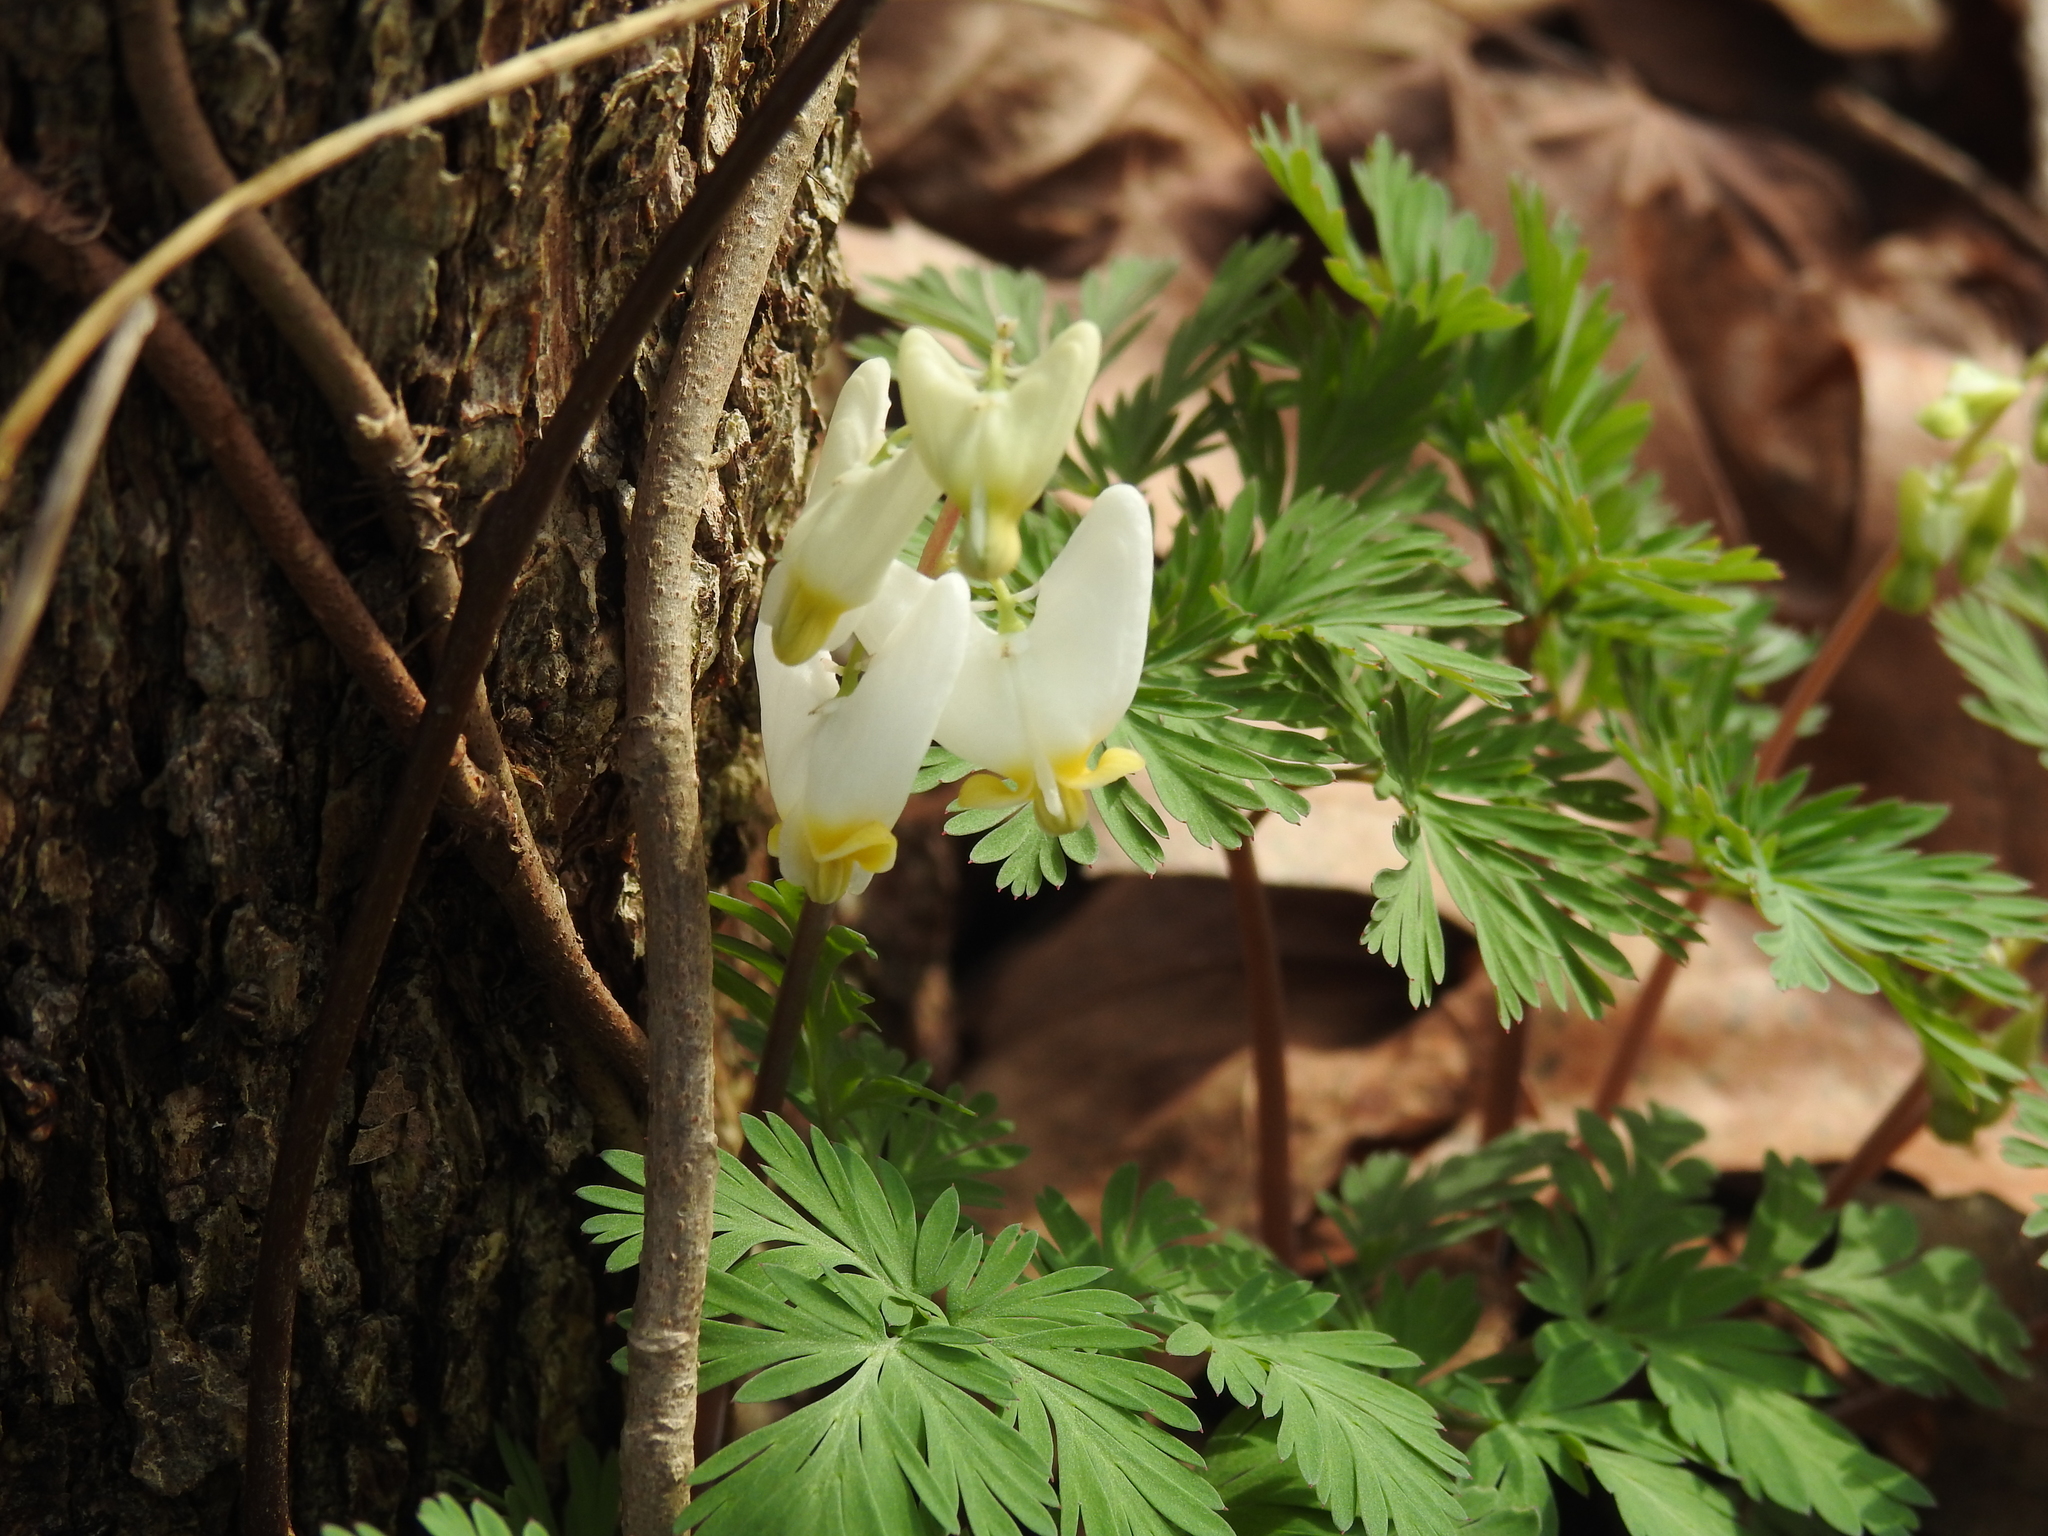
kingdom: Plantae
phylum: Tracheophyta
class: Magnoliopsida
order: Ranunculales
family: Papaveraceae
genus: Dicentra
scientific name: Dicentra cucullaria
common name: Dutchman's breeches
